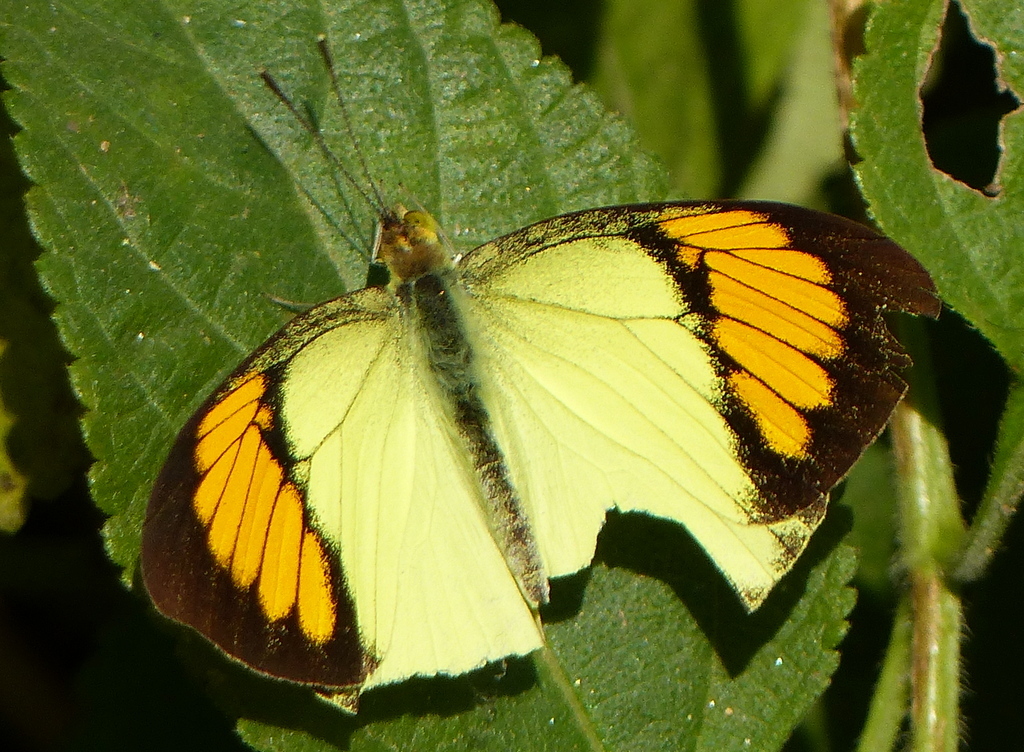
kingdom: Animalia
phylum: Arthropoda
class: Insecta
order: Lepidoptera
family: Pieridae
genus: Ixias
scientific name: Ixias pyrene
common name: Yellow orange tip
